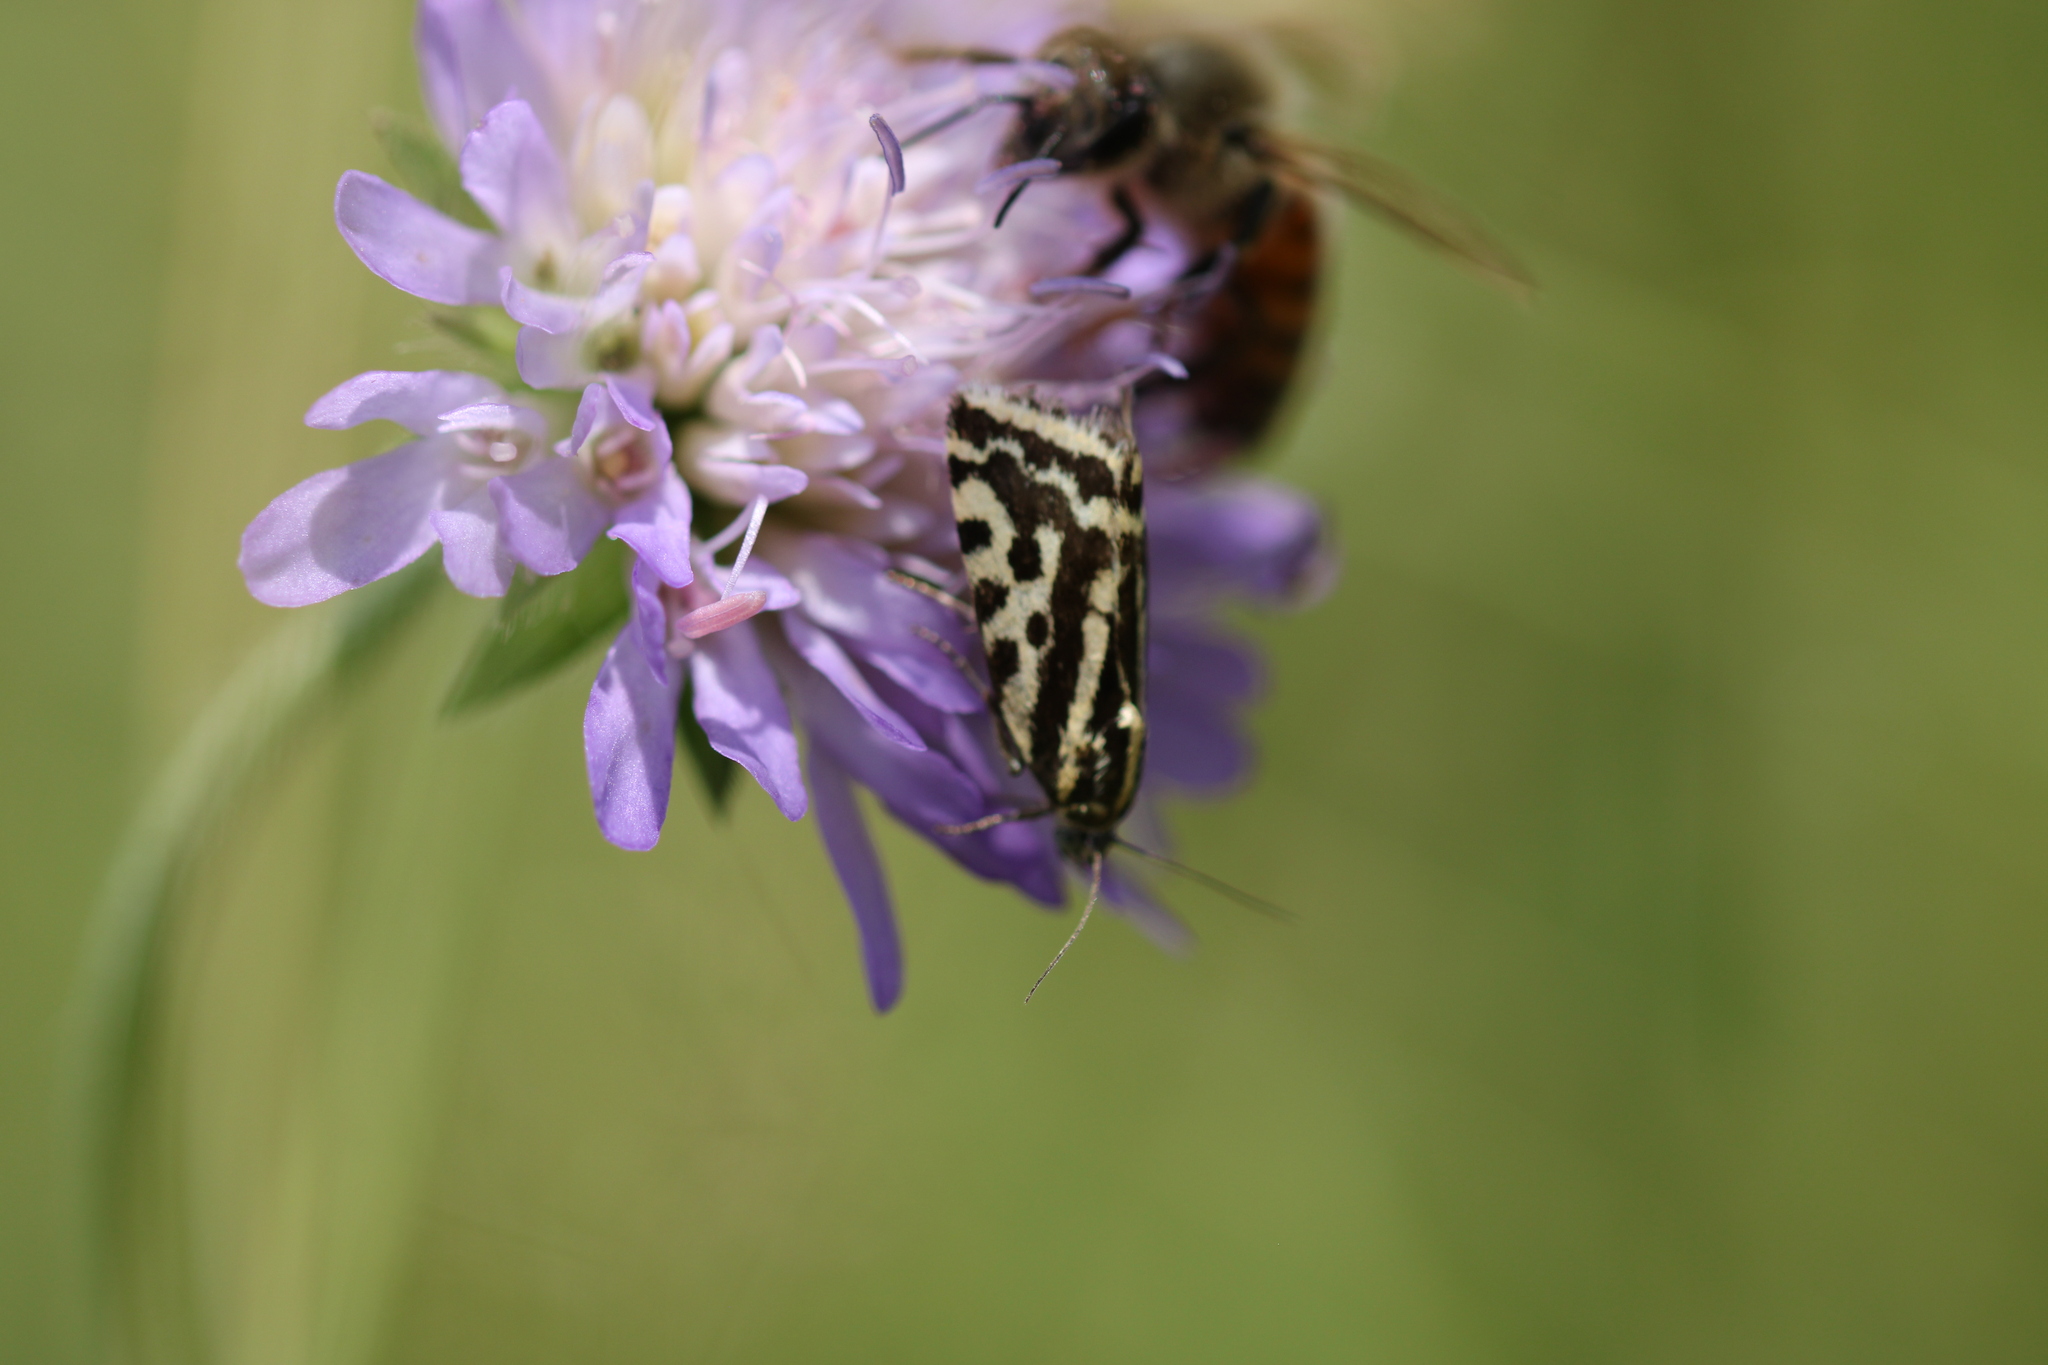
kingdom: Animalia
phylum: Arthropoda
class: Insecta
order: Lepidoptera
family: Noctuidae
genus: Acontia
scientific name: Acontia trabealis
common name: Spotted sulphur
